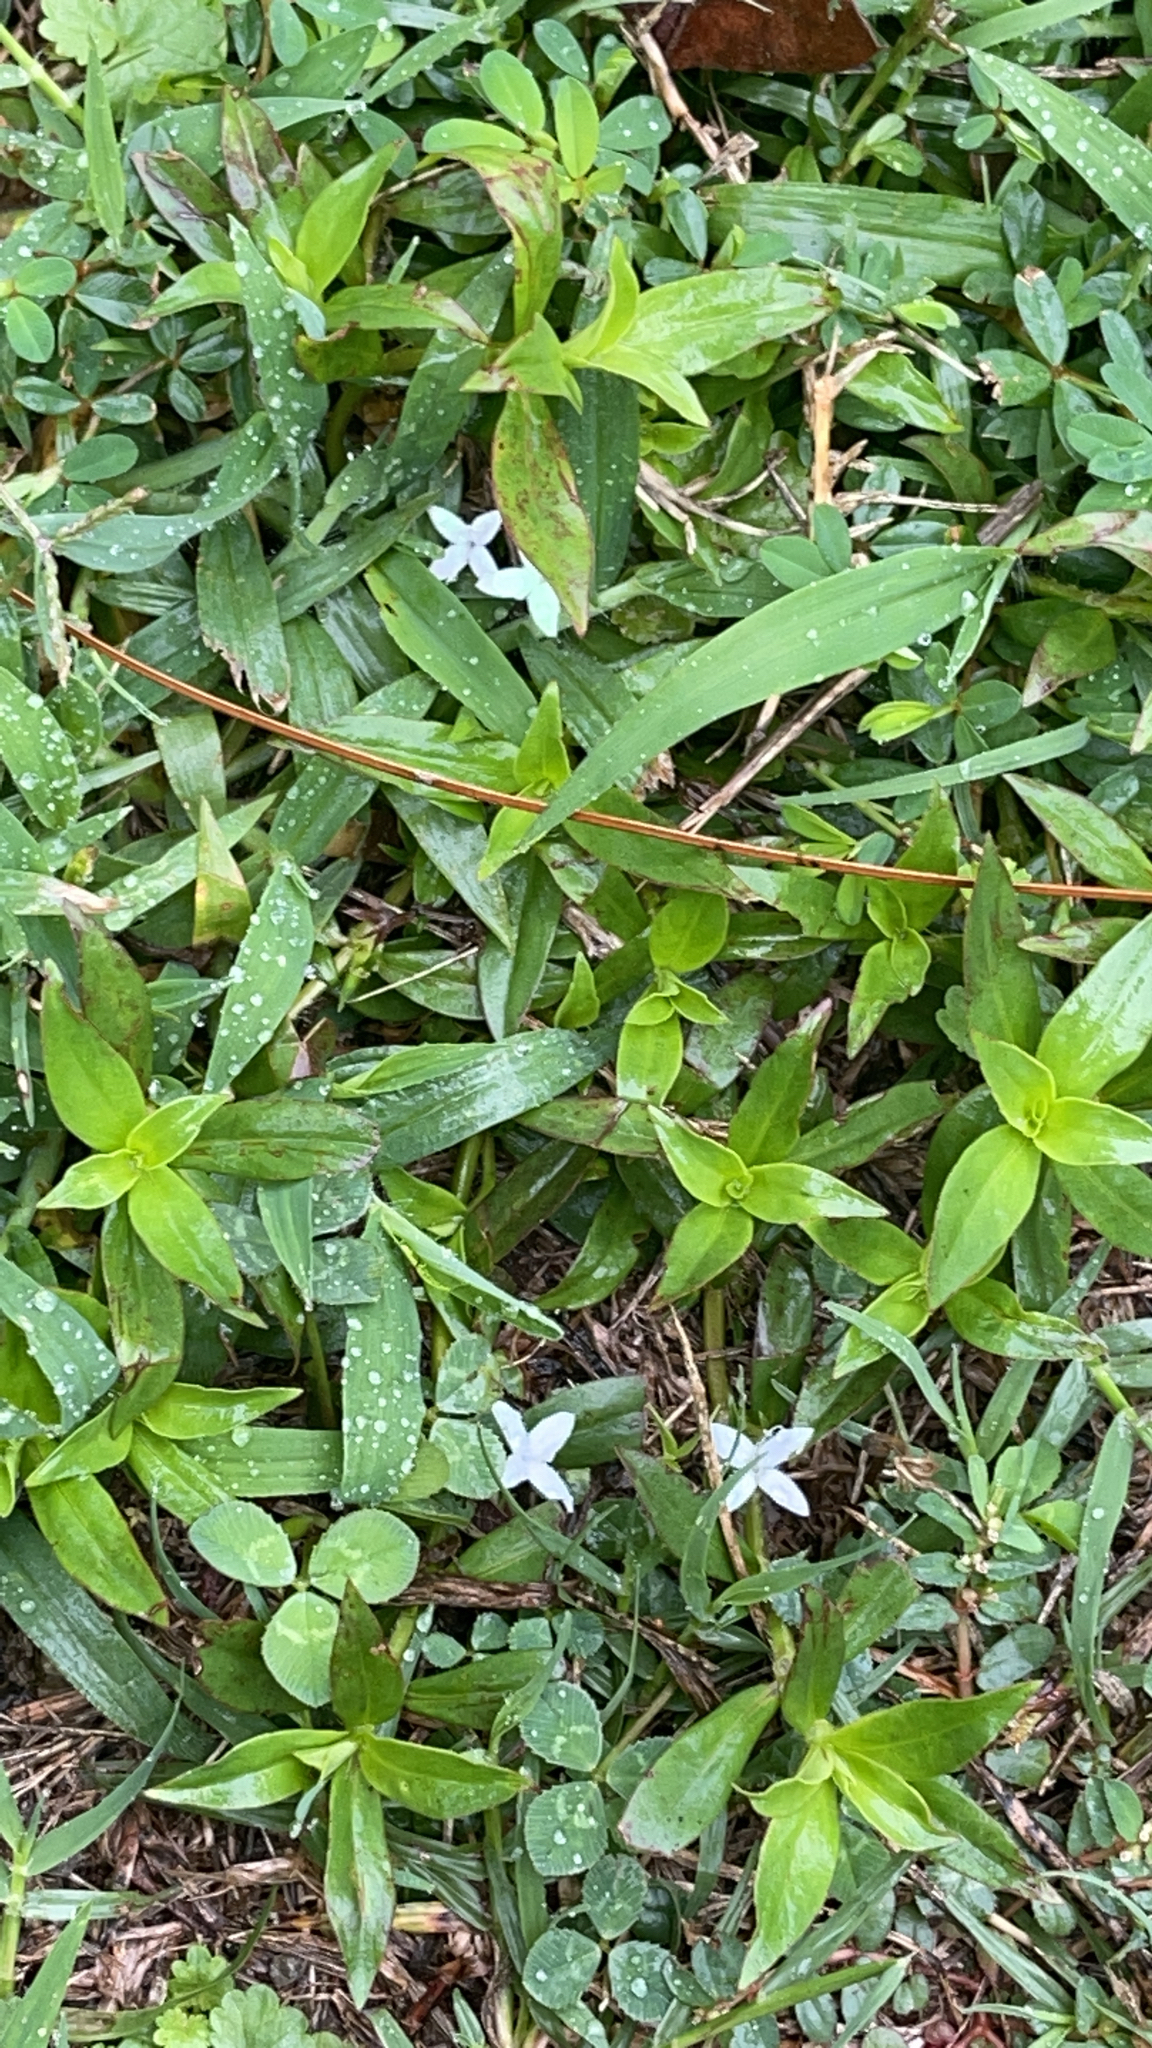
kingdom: Plantae
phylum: Tracheophyta
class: Magnoliopsida
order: Gentianales
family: Rubiaceae
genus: Diodia
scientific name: Diodia virginiana
